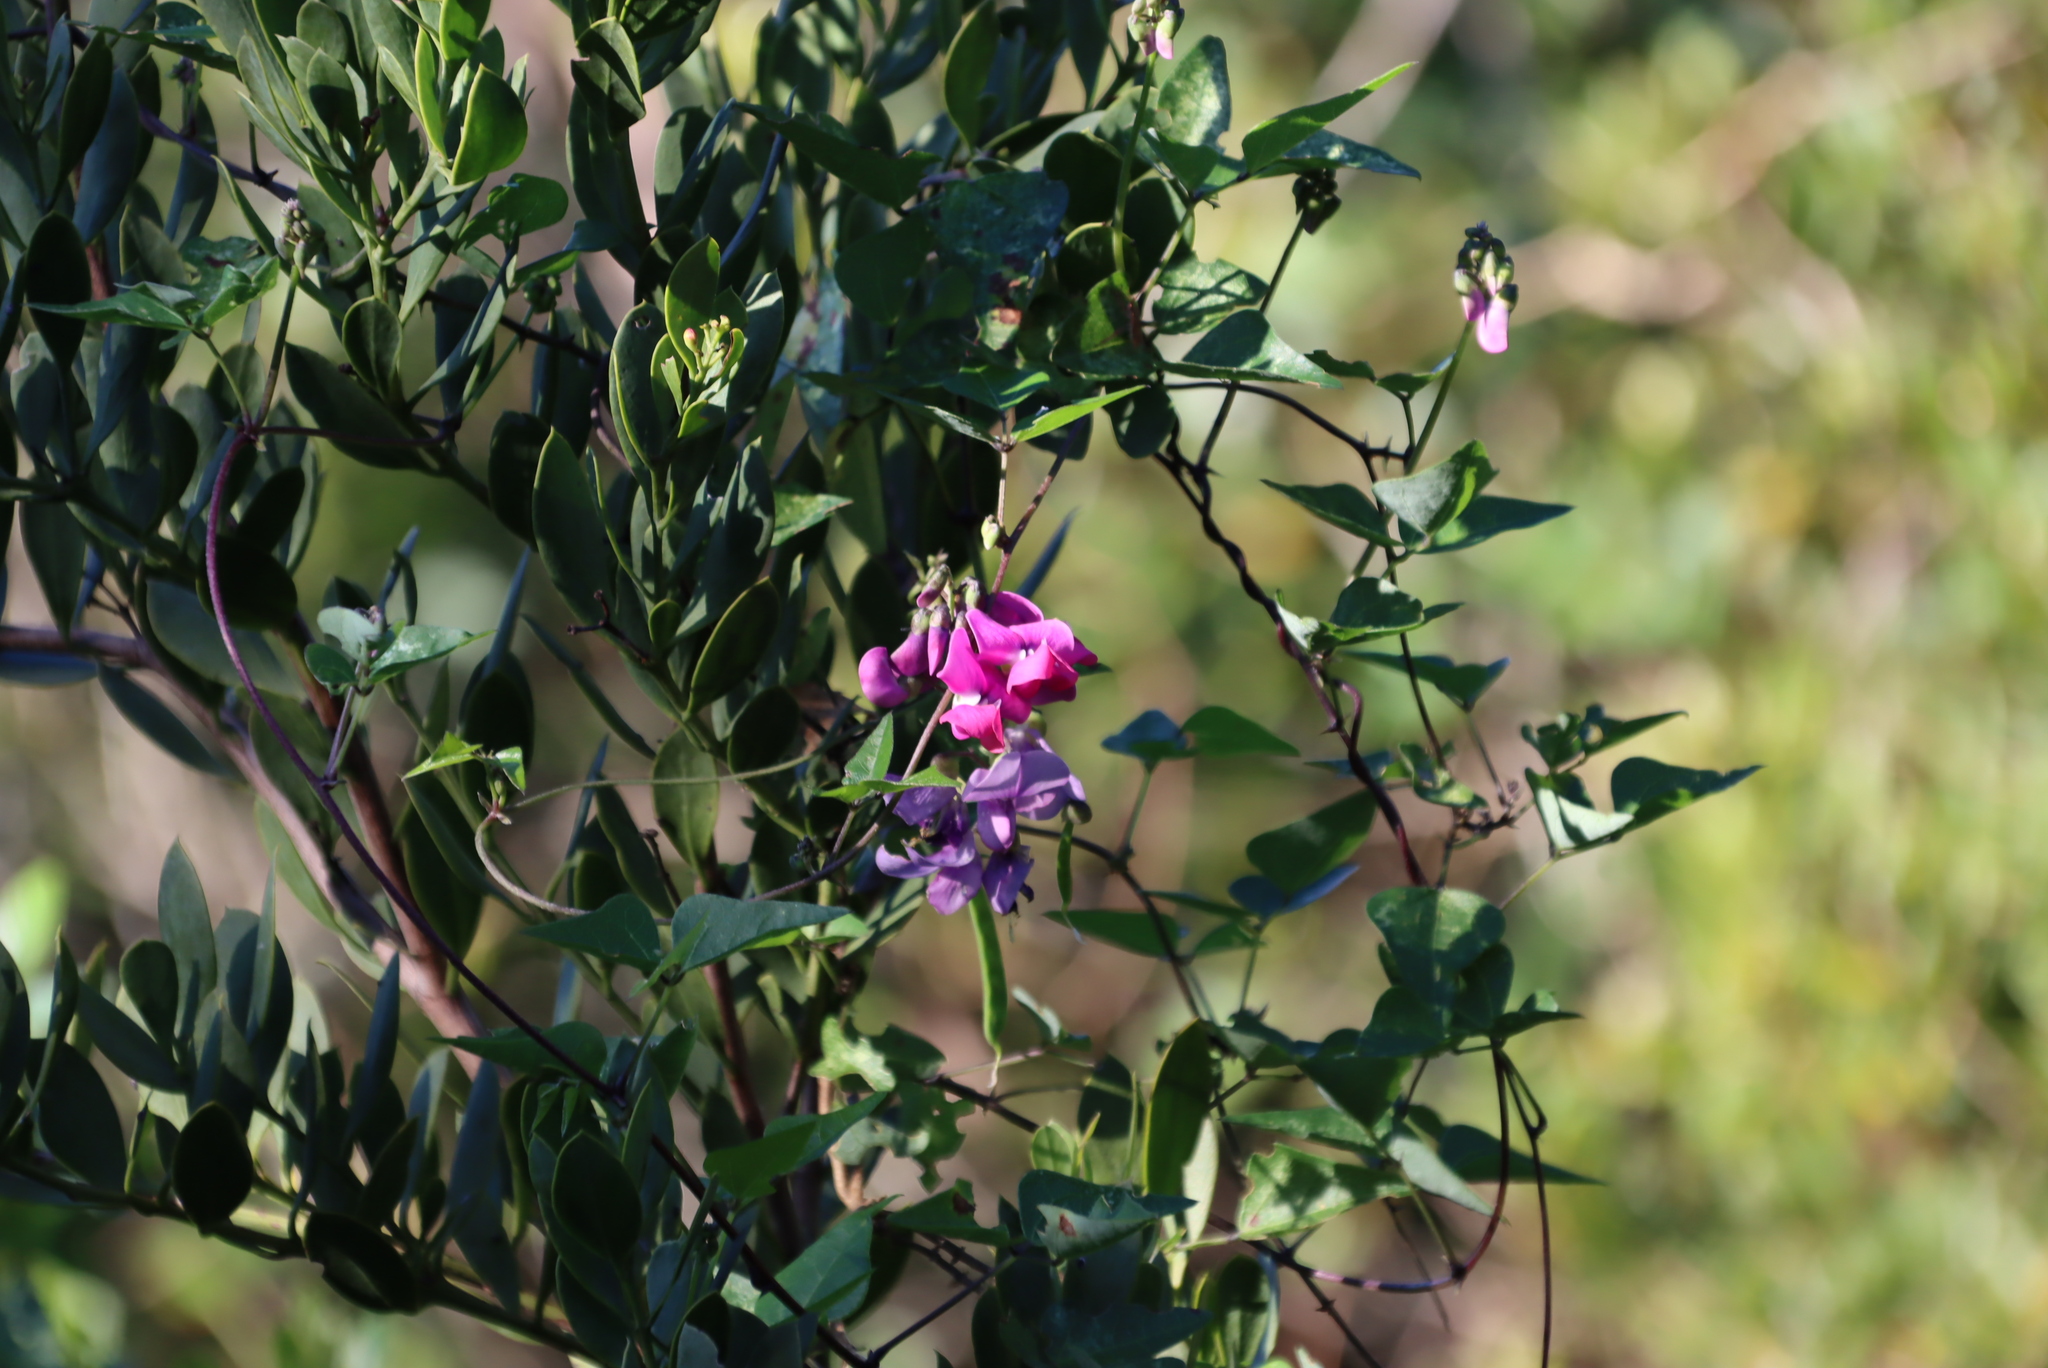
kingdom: Plantae
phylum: Tracheophyta
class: Magnoliopsida
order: Fabales
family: Fabaceae
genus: Dipogon
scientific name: Dipogon lignosus
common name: Okie bean
